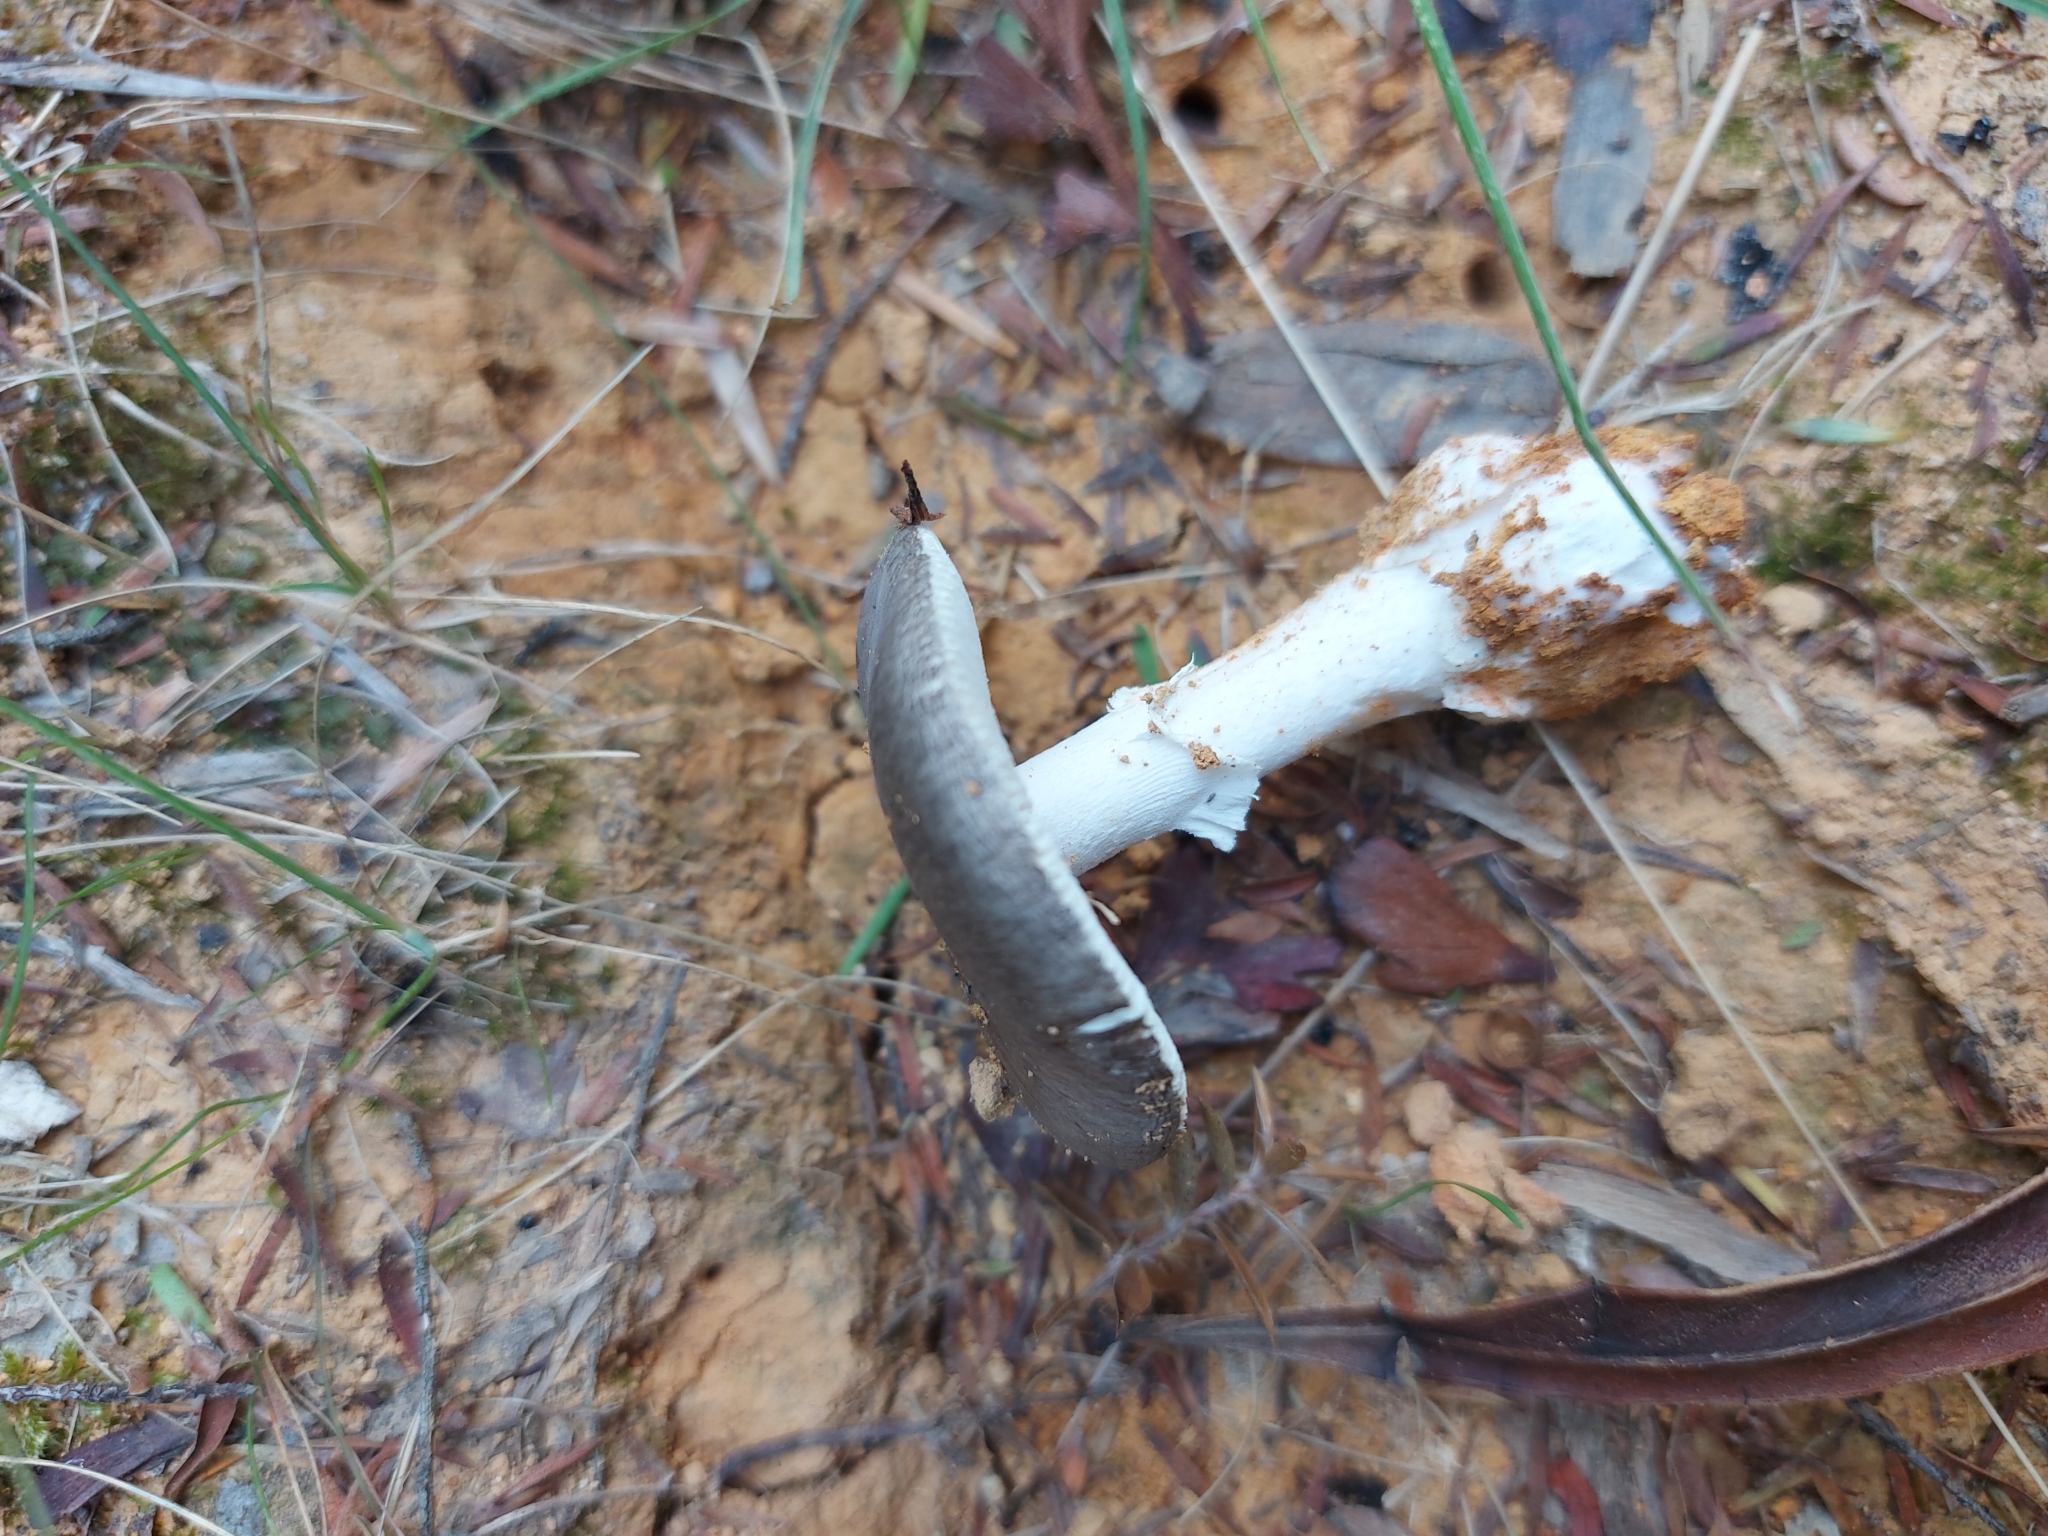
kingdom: Fungi
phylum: Basidiomycota
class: Agaricomycetes
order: Agaricales
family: Amanitaceae
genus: Amanita
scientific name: Amanita marmorata
